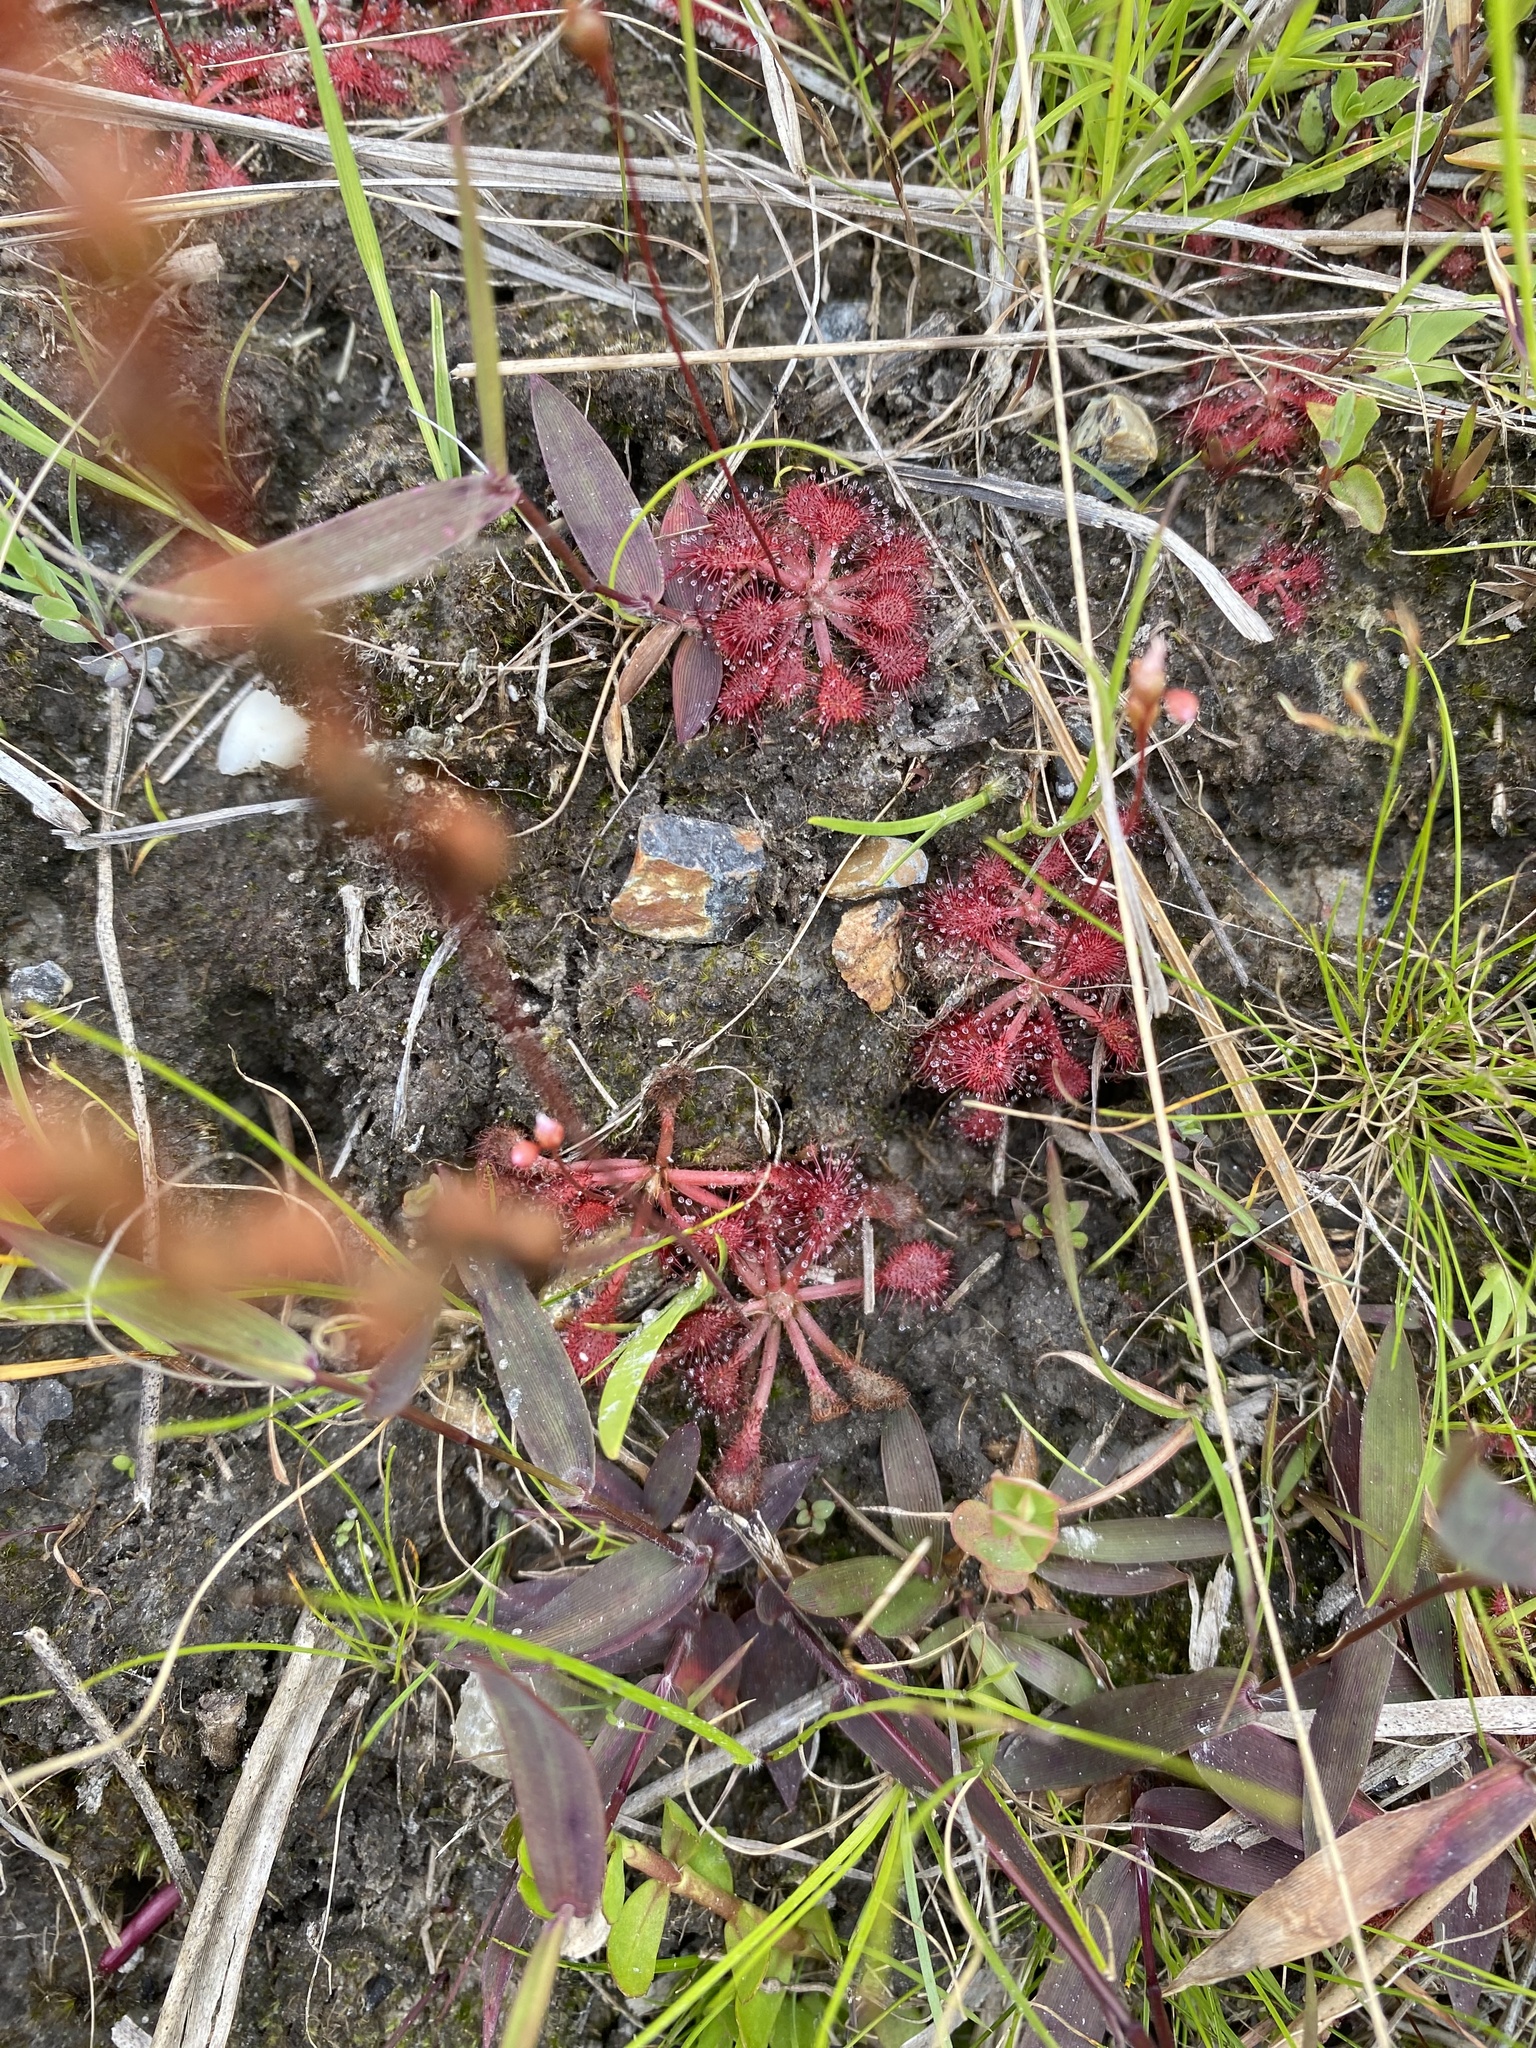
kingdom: Plantae
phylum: Tracheophyta
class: Magnoliopsida
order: Caryophyllales
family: Droseraceae
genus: Drosera
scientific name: Drosera capillaris
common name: Pink sundew
